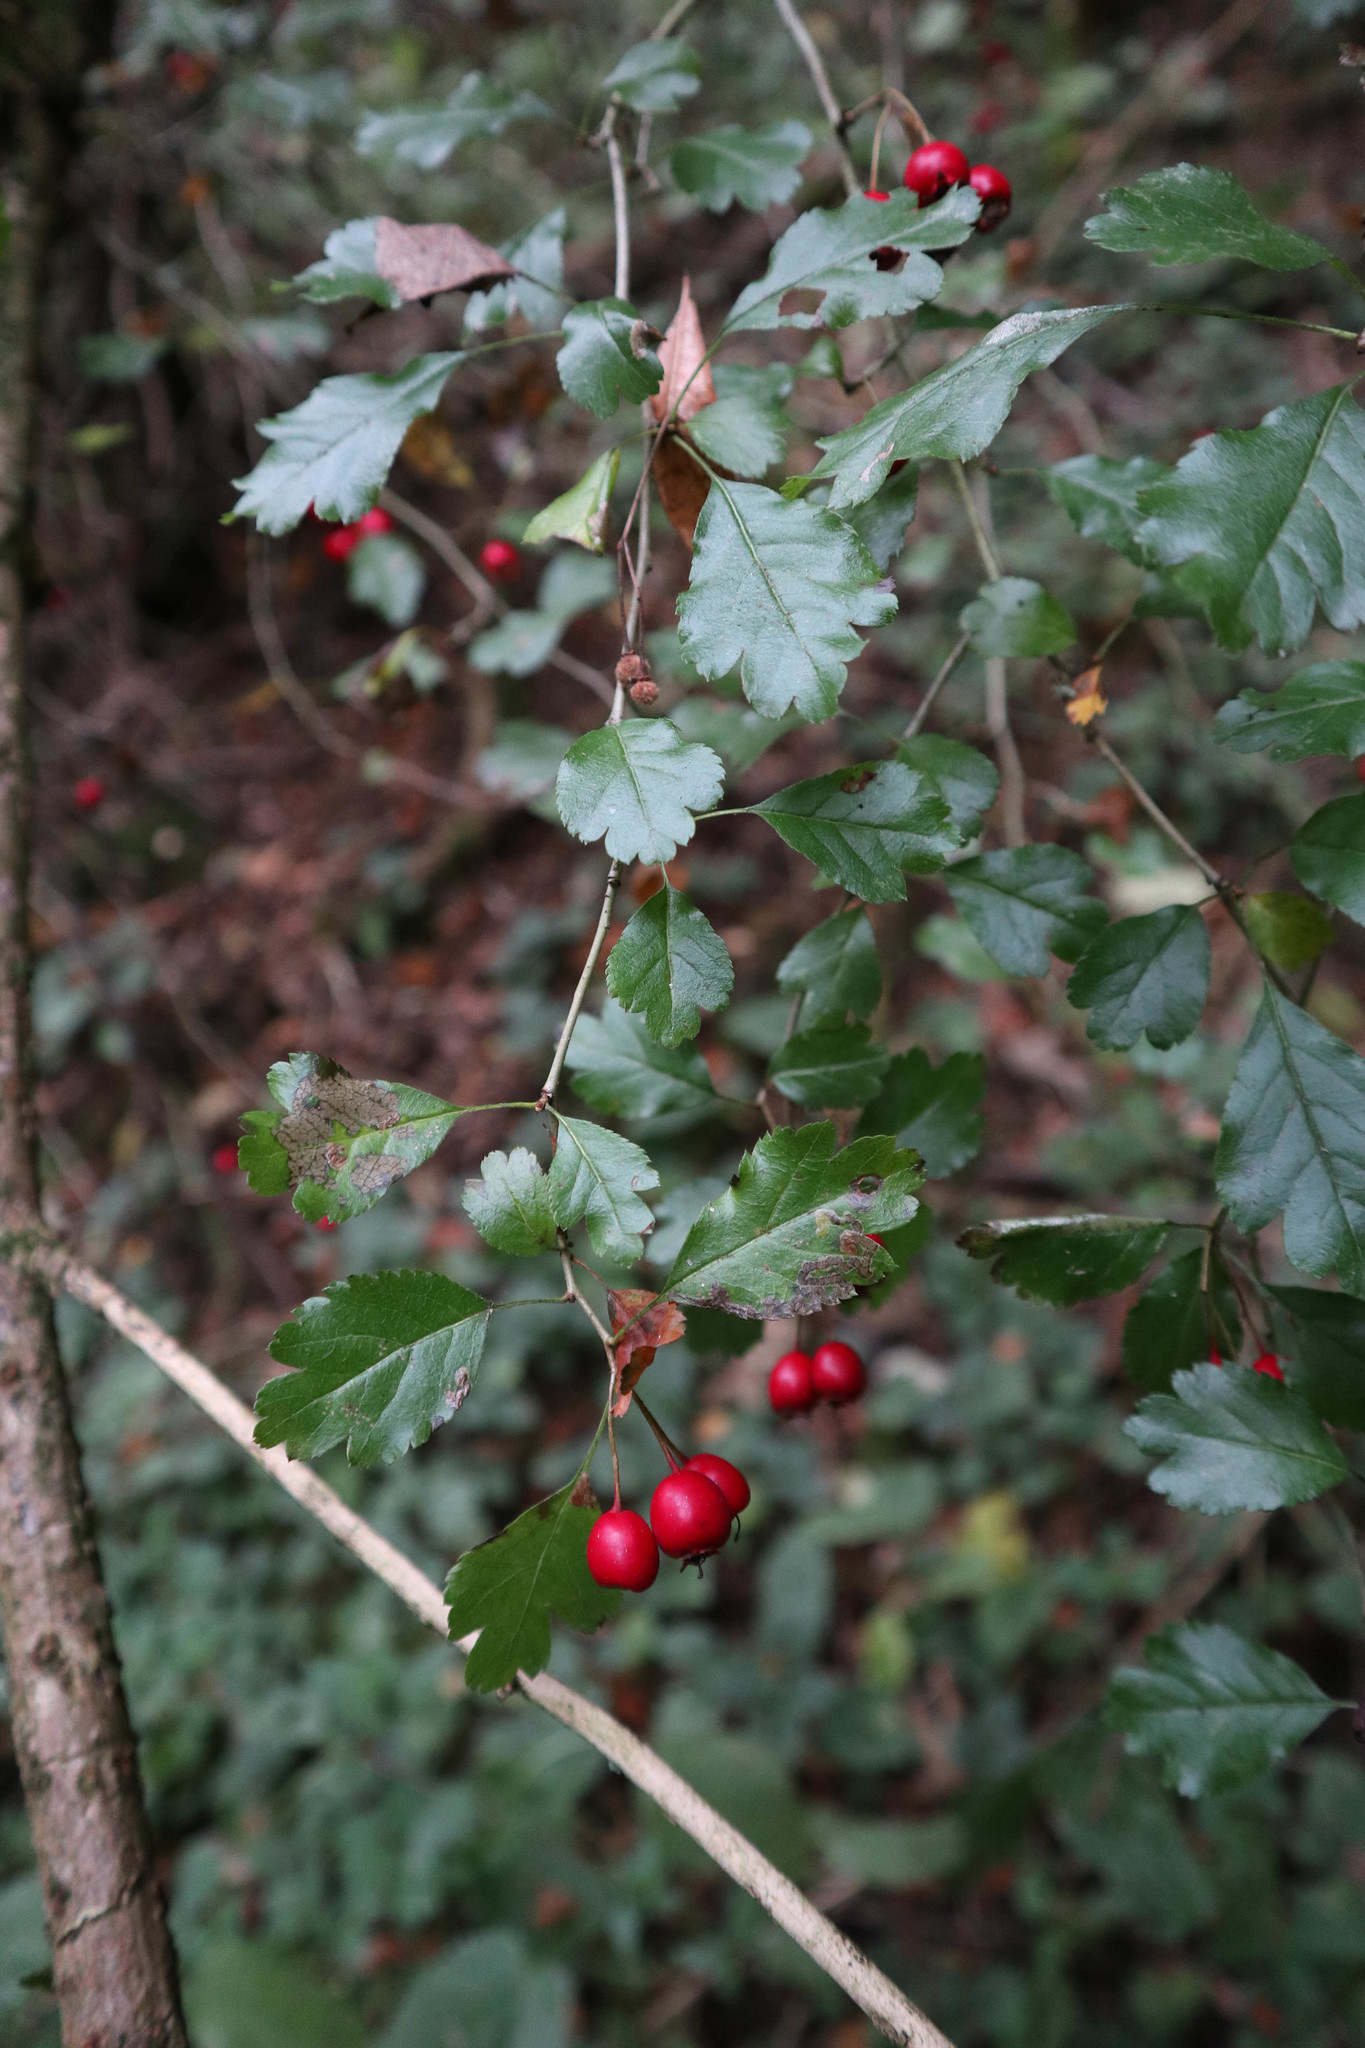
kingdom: Plantae
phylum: Tracheophyta
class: Magnoliopsida
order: Rosales
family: Rosaceae
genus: Crataegus
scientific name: Crataegus laevigata
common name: Midland hawthorn
